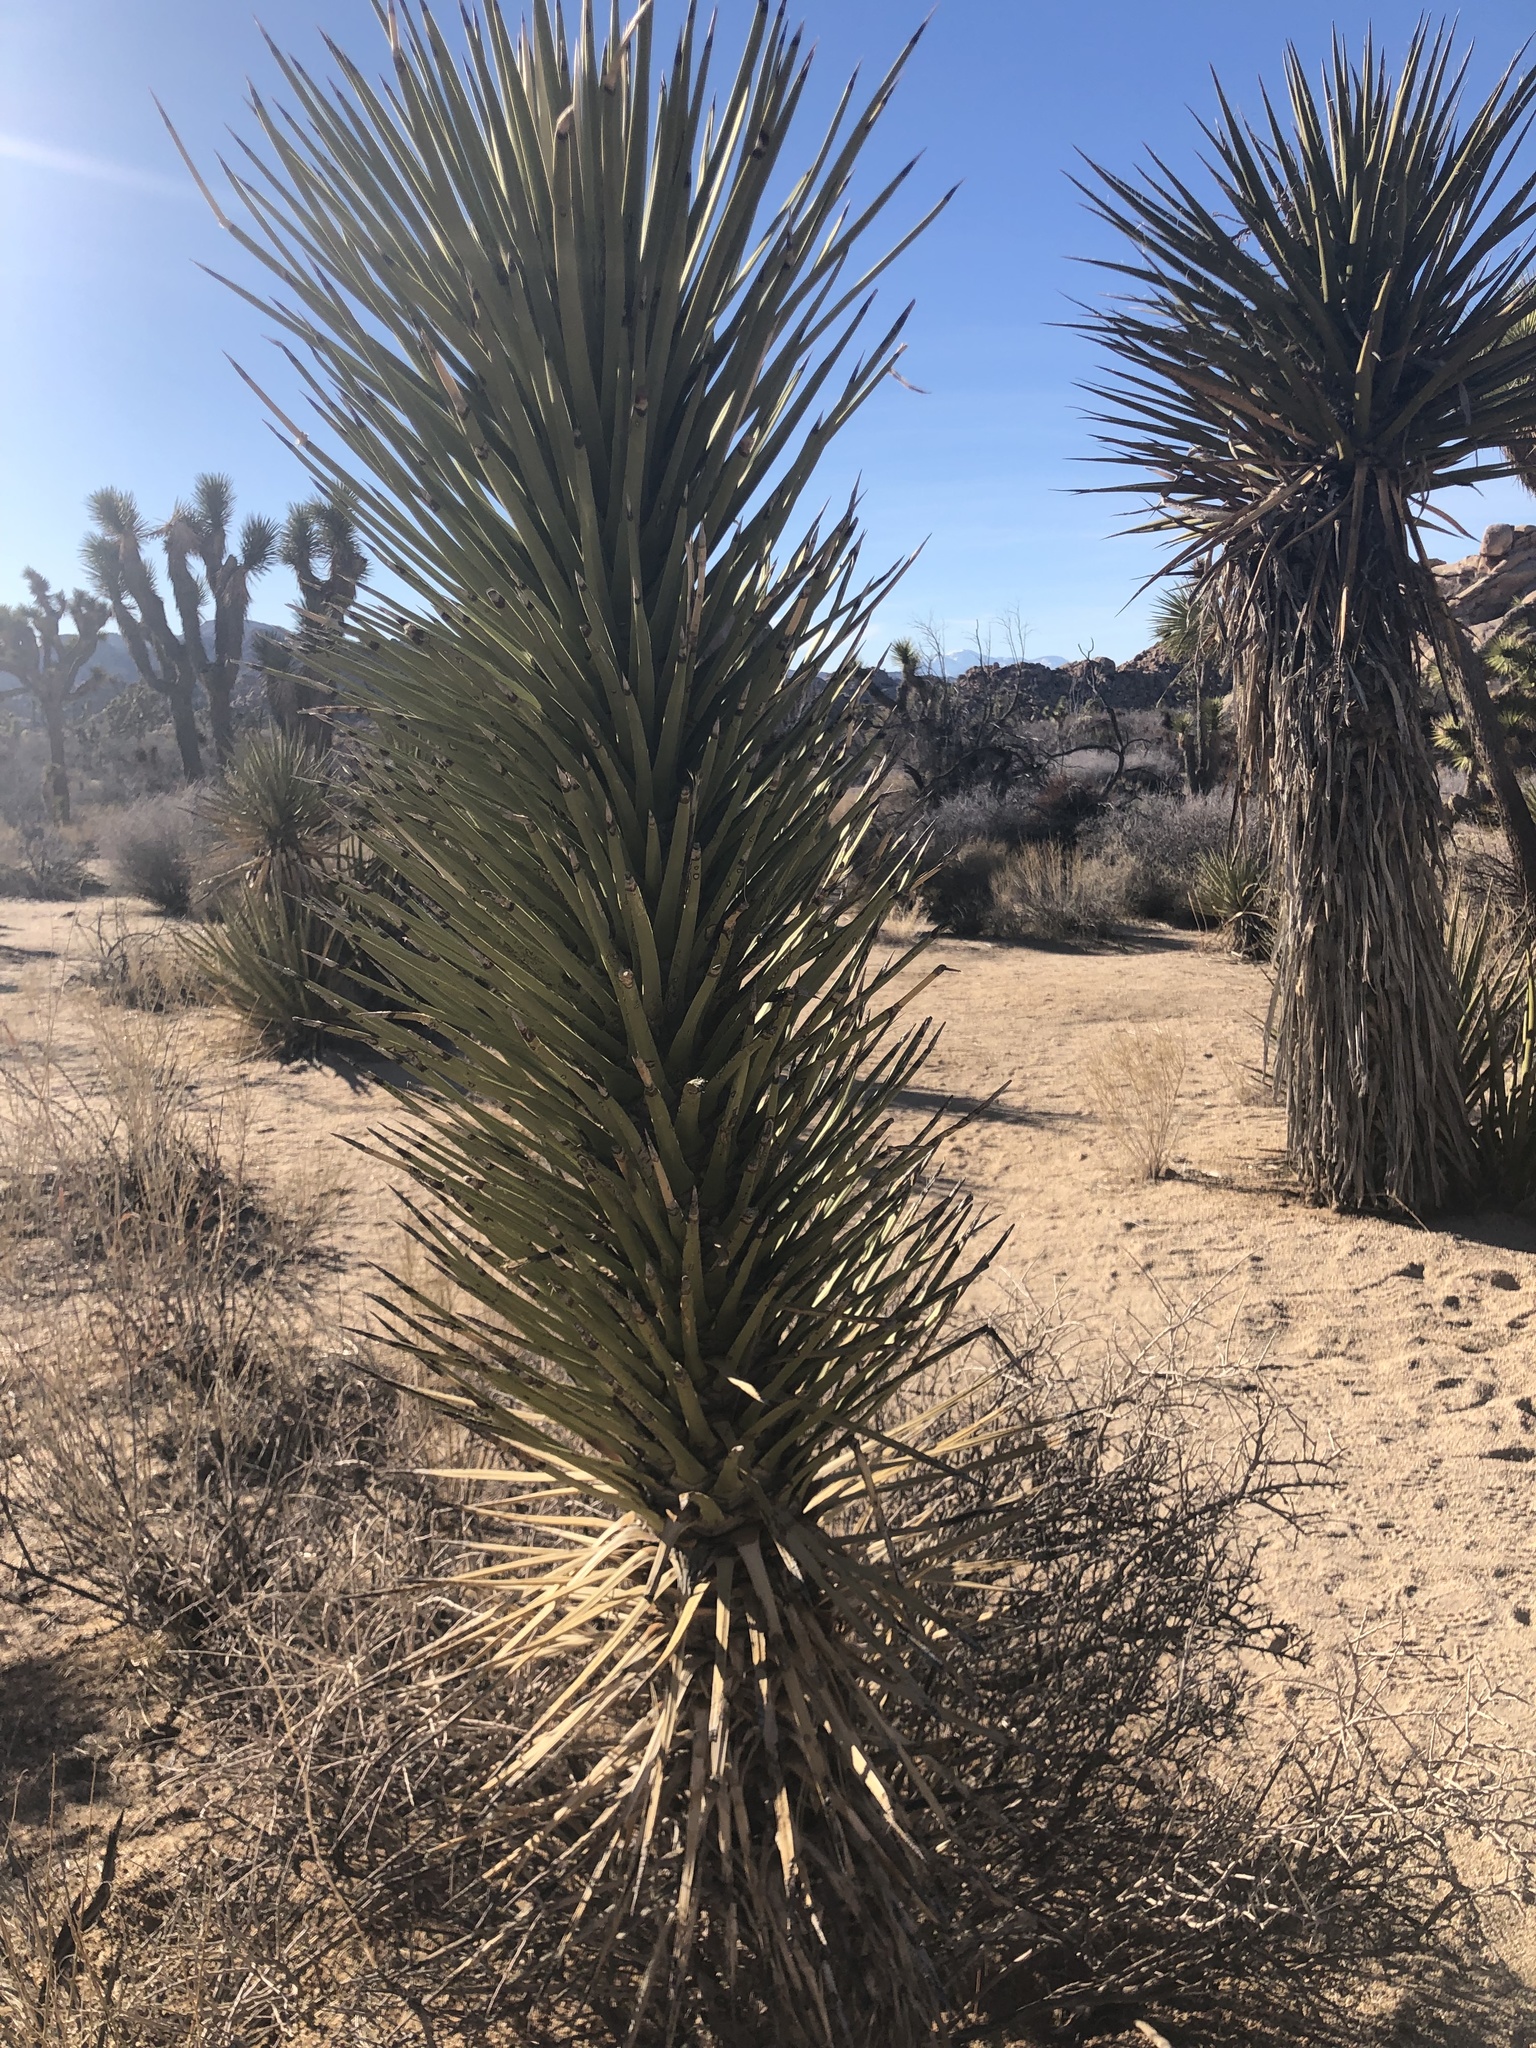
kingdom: Plantae
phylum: Tracheophyta
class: Liliopsida
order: Asparagales
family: Asparagaceae
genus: Yucca
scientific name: Yucca brevifolia
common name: Joshua tree
